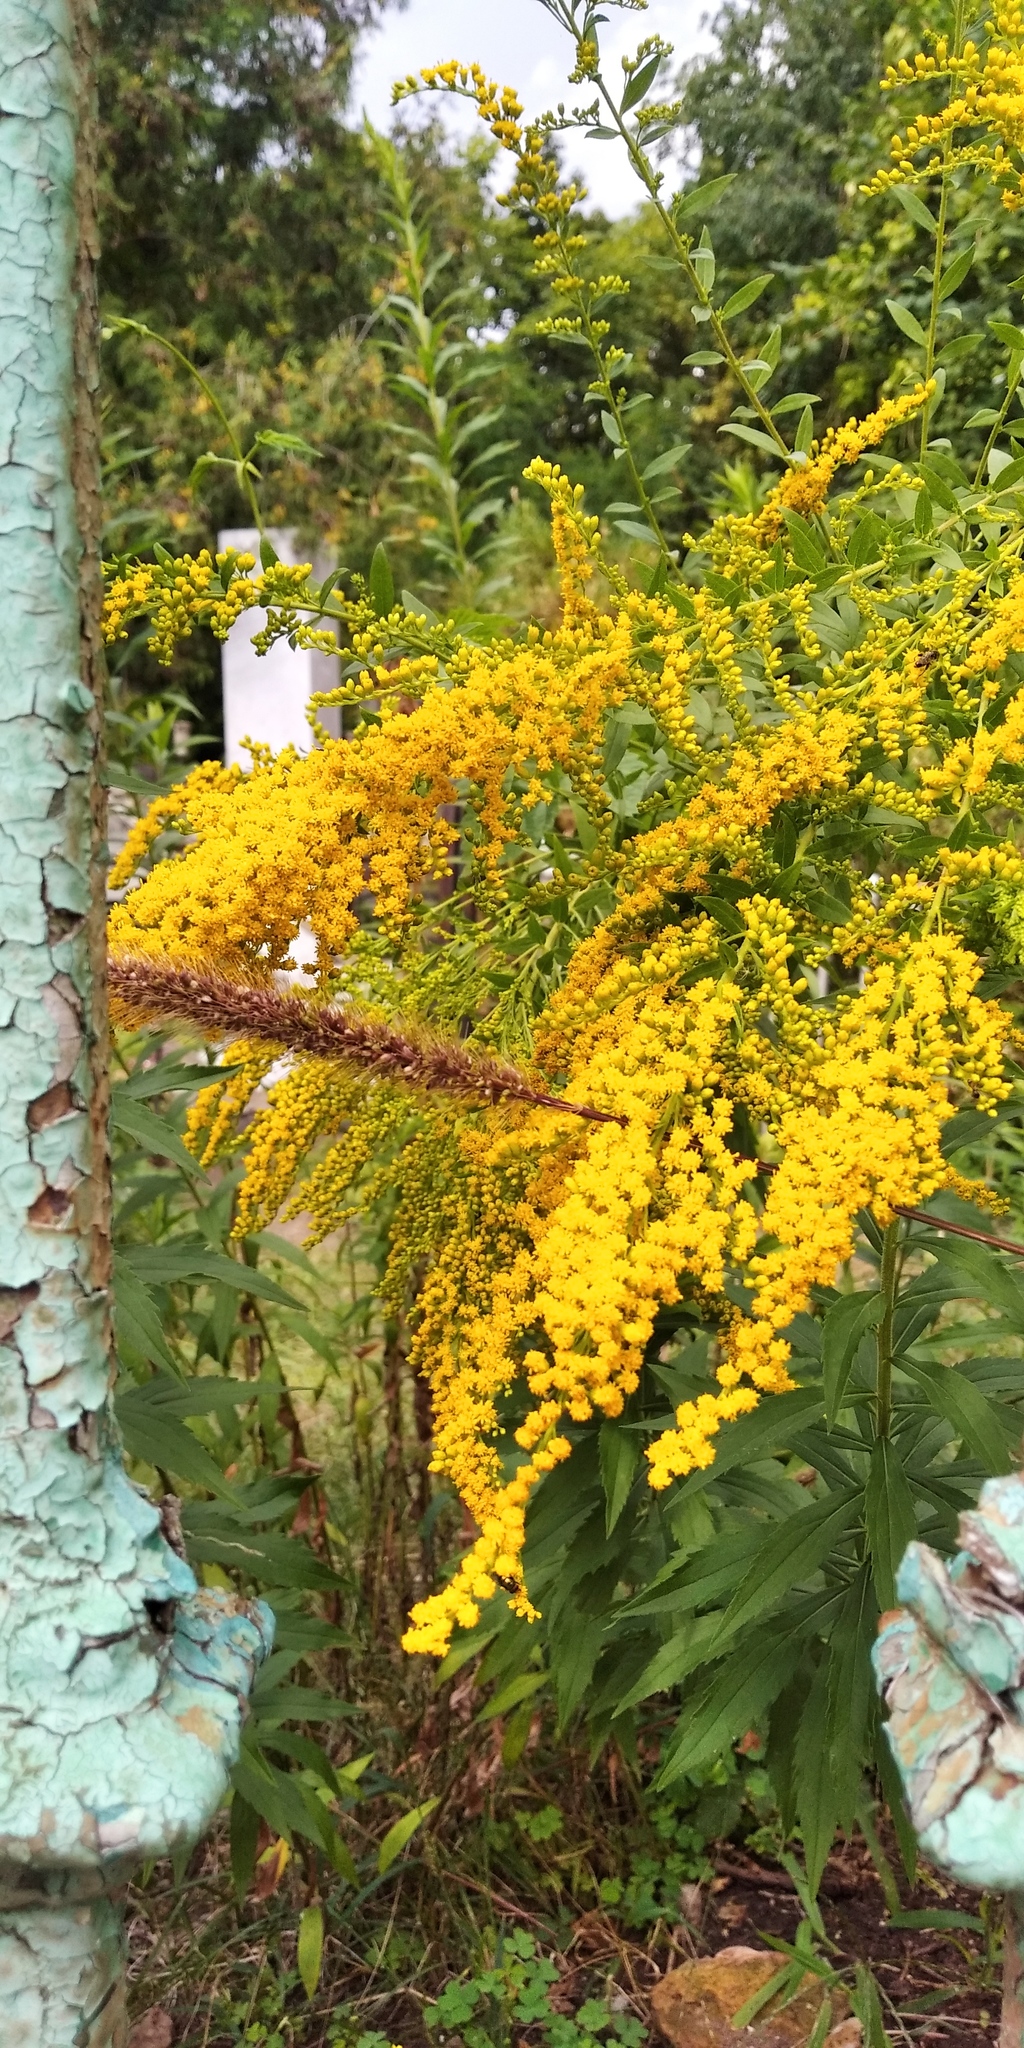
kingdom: Plantae
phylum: Tracheophyta
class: Magnoliopsida
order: Asterales
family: Asteraceae
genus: Solidago
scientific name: Solidago canadensis
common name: Canada goldenrod
